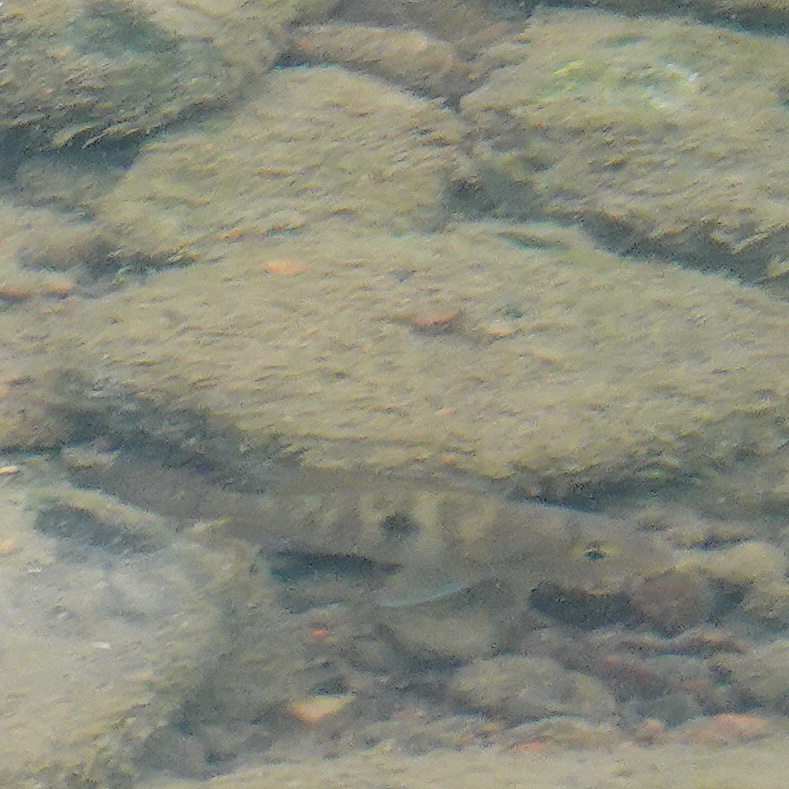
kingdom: Animalia
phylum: Chordata
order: Perciformes
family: Cichlidae
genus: Geophagus
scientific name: Geophagus brasiliensis
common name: Braziliensis
